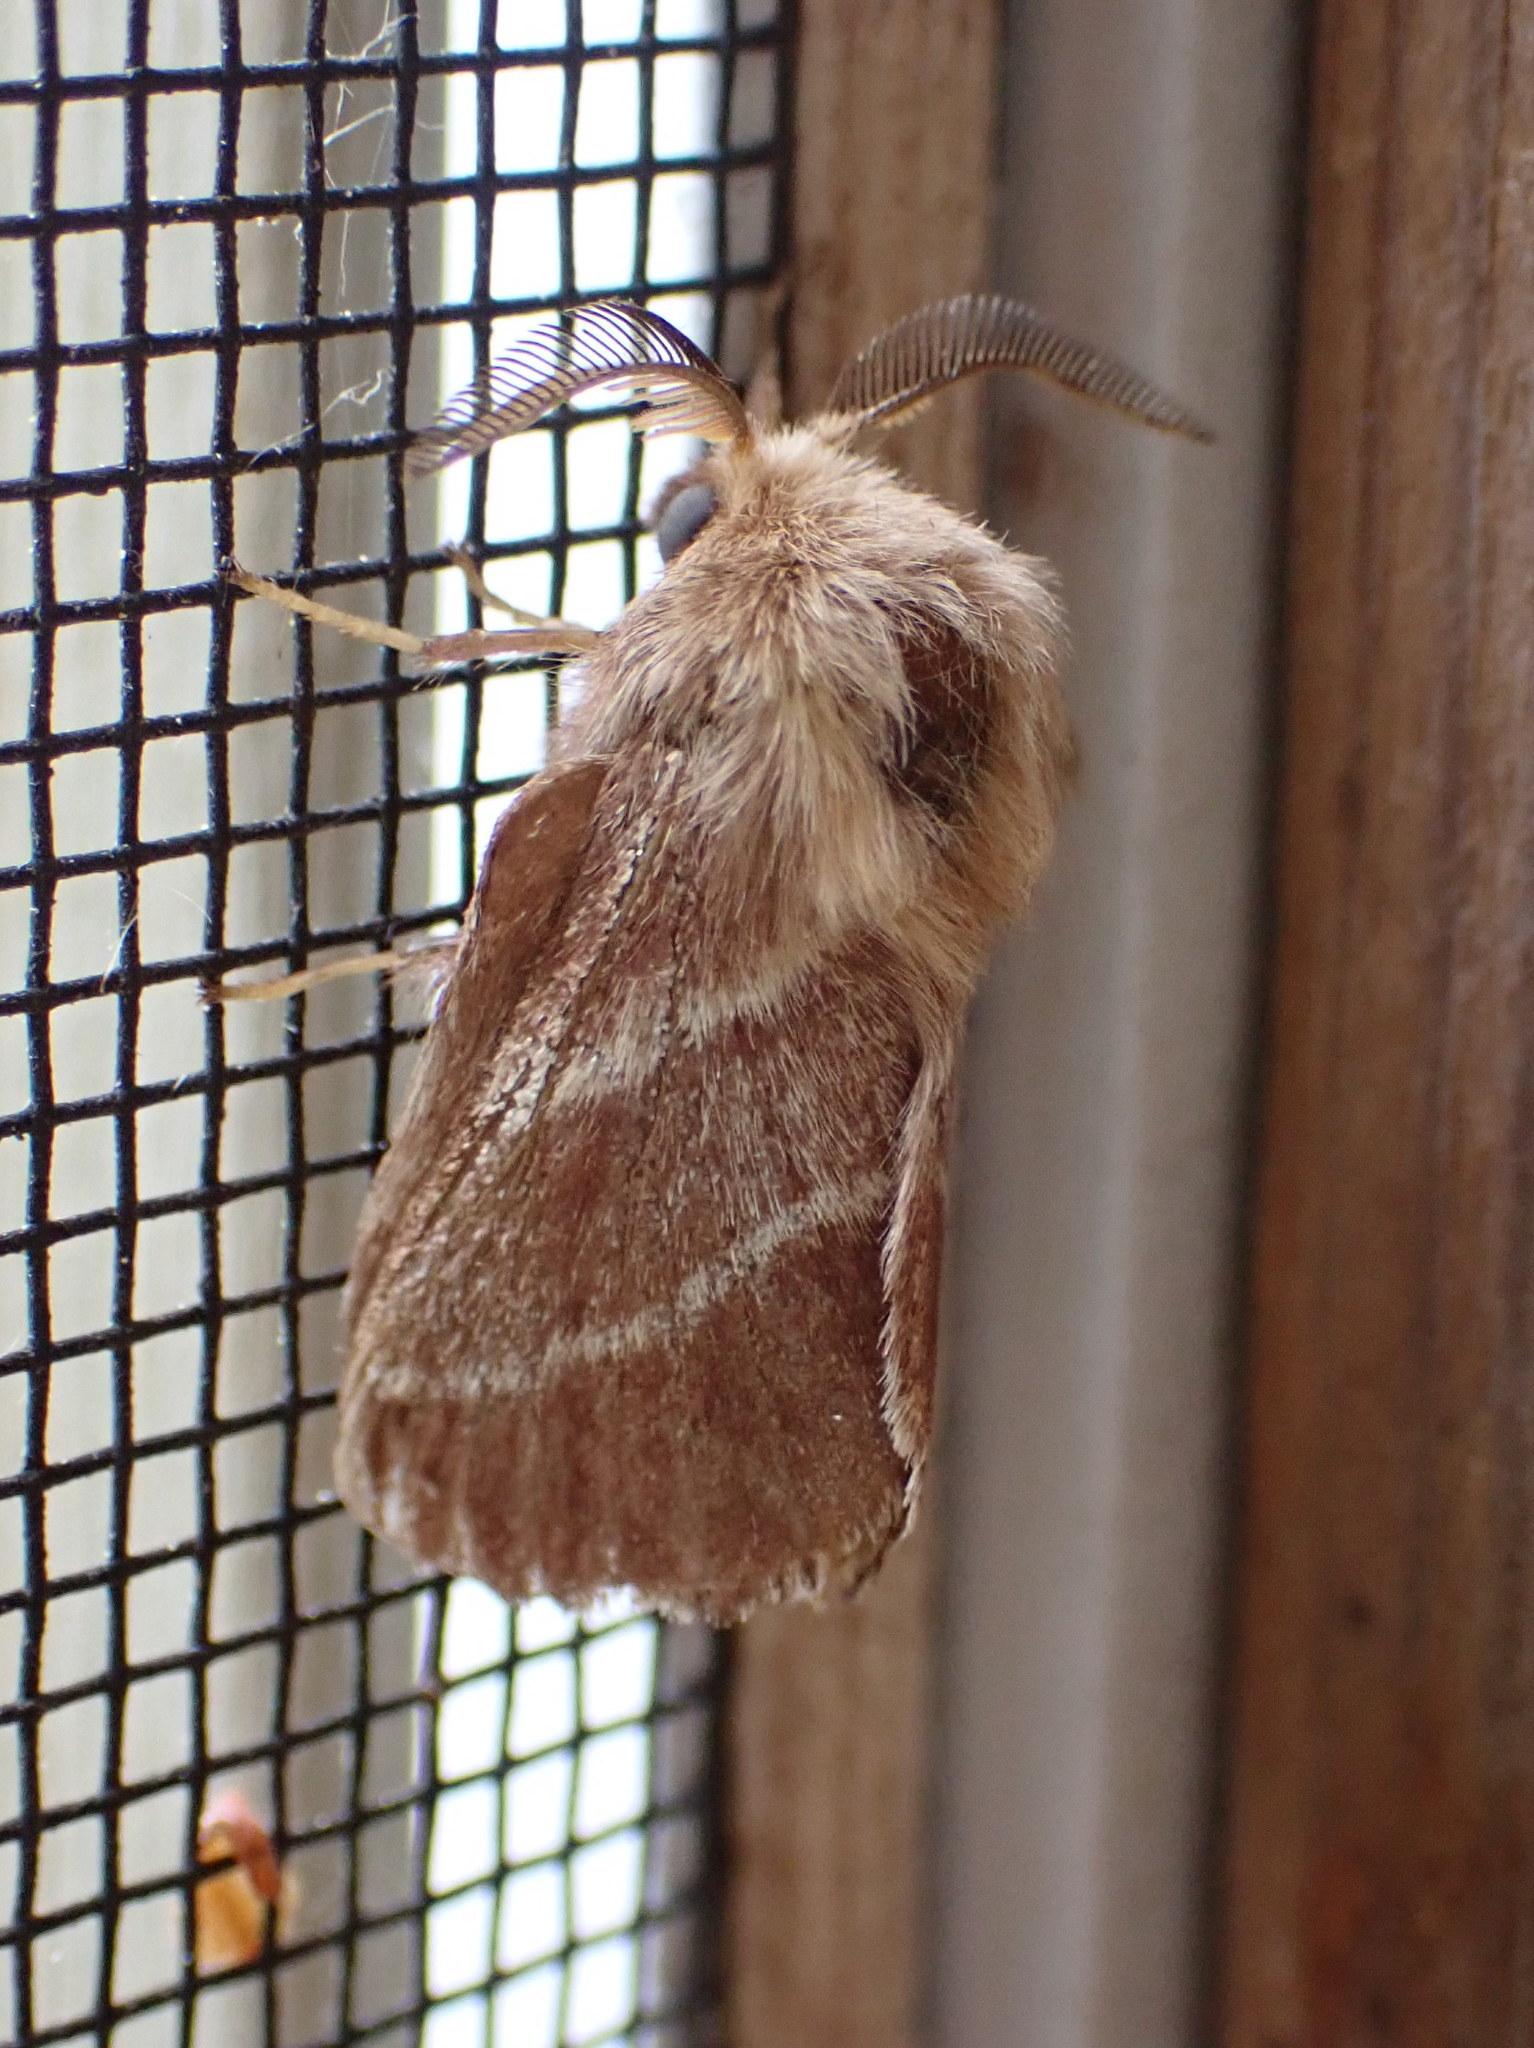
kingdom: Animalia
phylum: Arthropoda
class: Insecta
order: Lepidoptera
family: Lasiocampidae
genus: Malacosoma
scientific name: Malacosoma americana
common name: Eastern tent caterpillar moth
